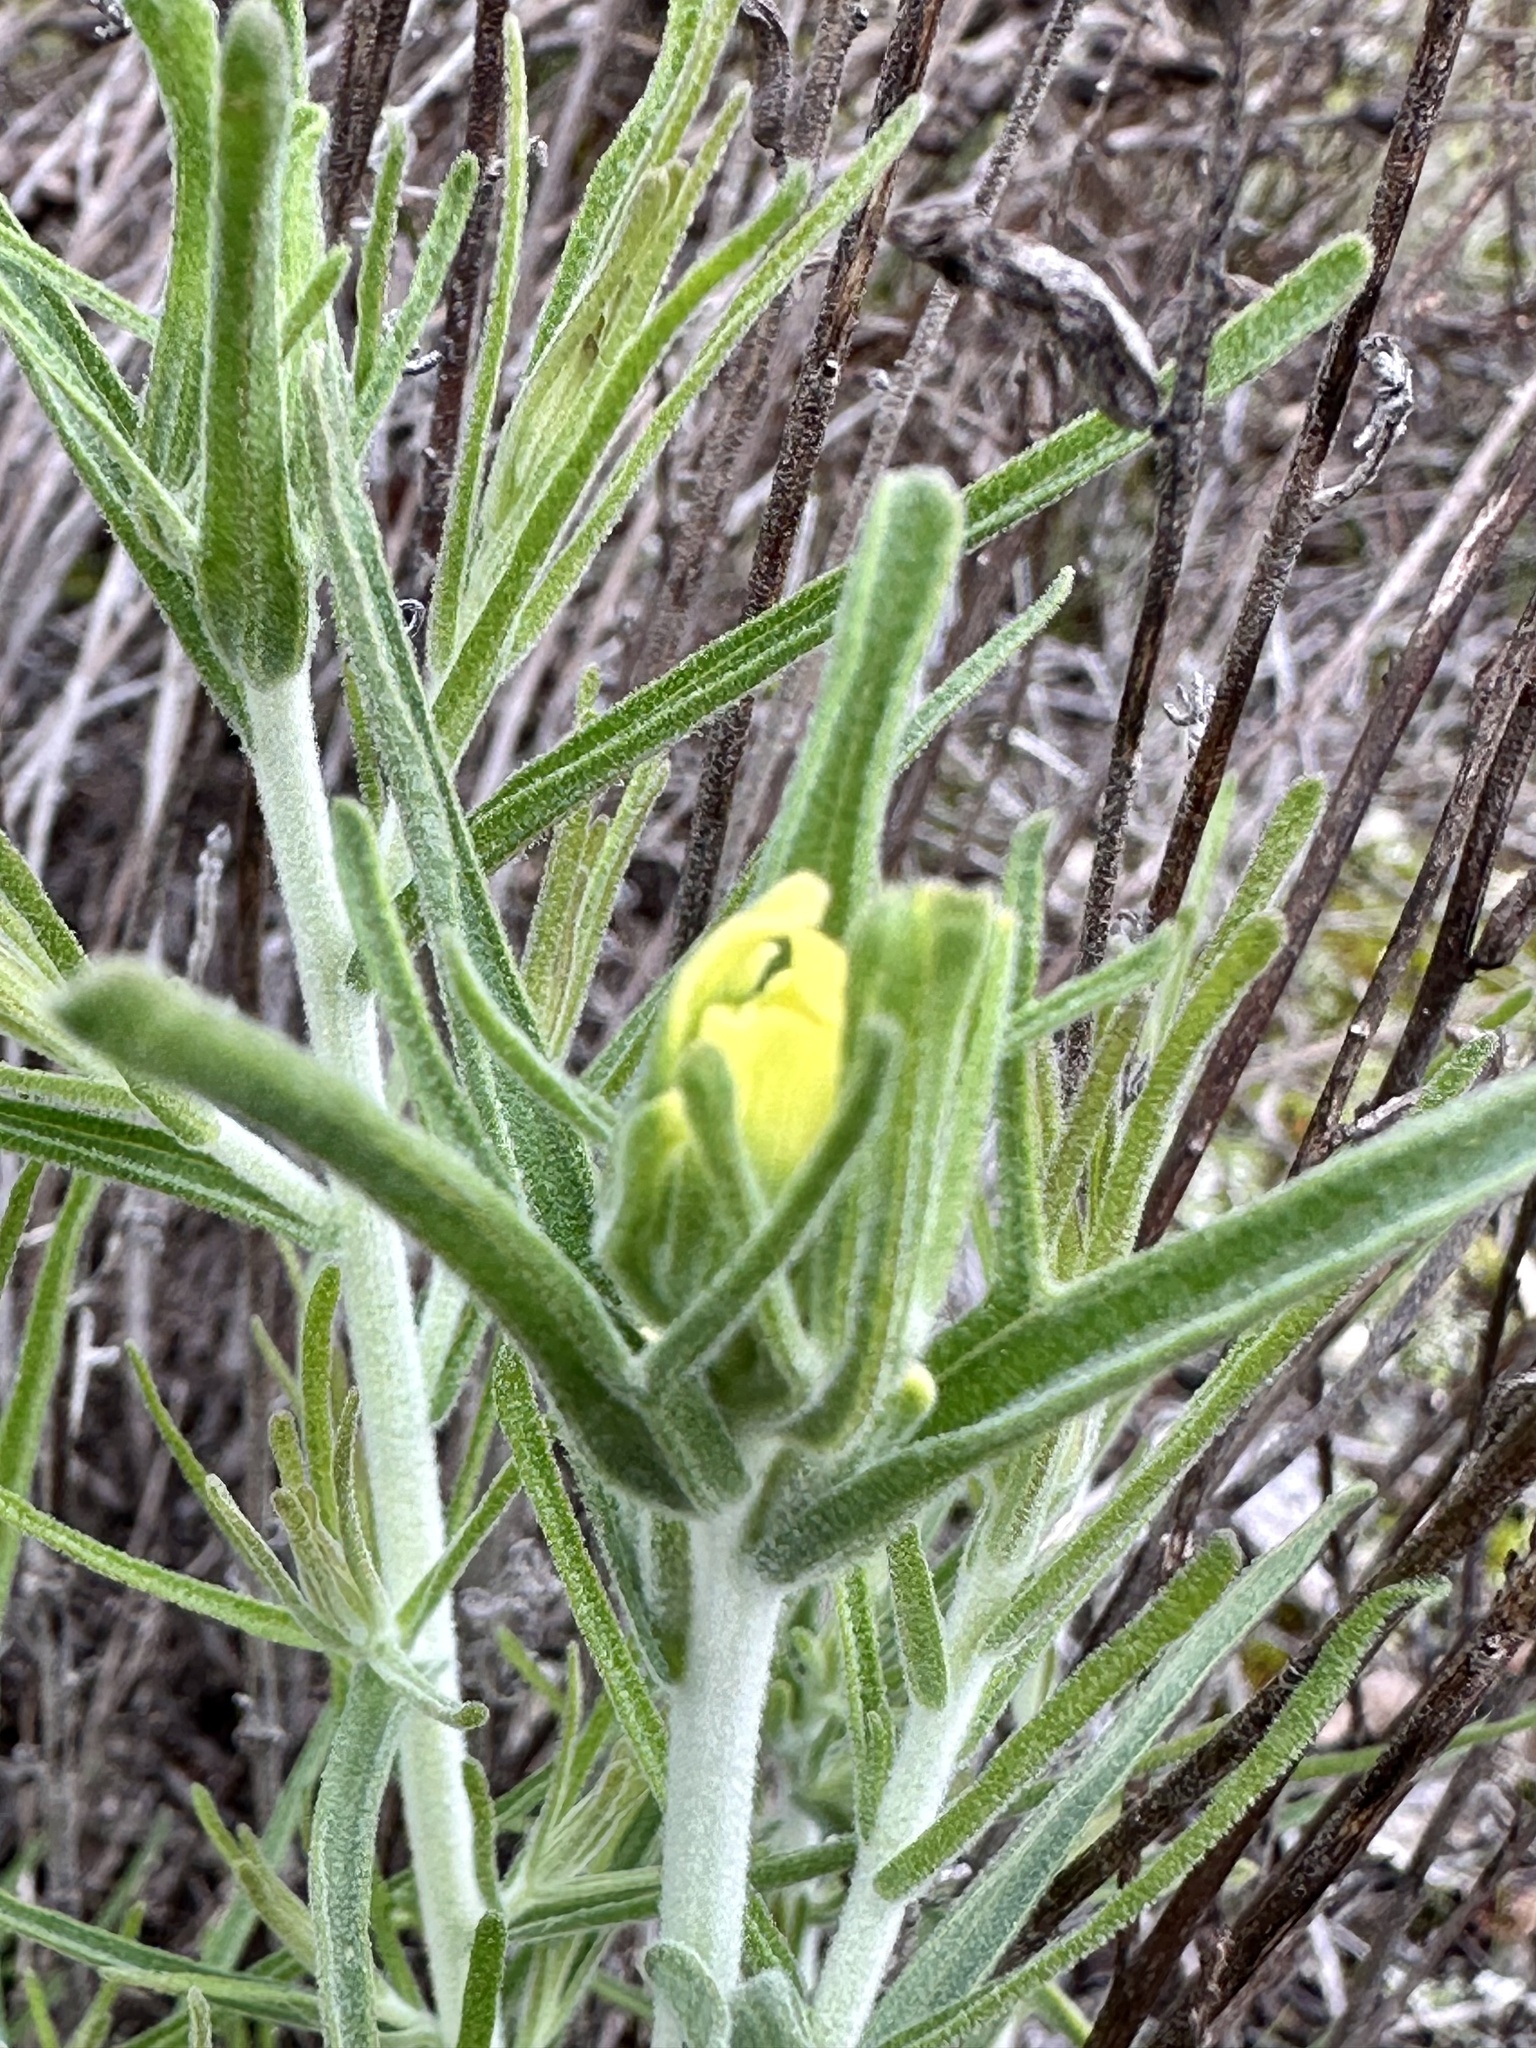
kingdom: Plantae
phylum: Tracheophyta
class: Magnoliopsida
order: Lamiales
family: Orobanchaceae
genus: Castilleja
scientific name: Castilleja foliolosa
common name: Woolly indian paintbrush
